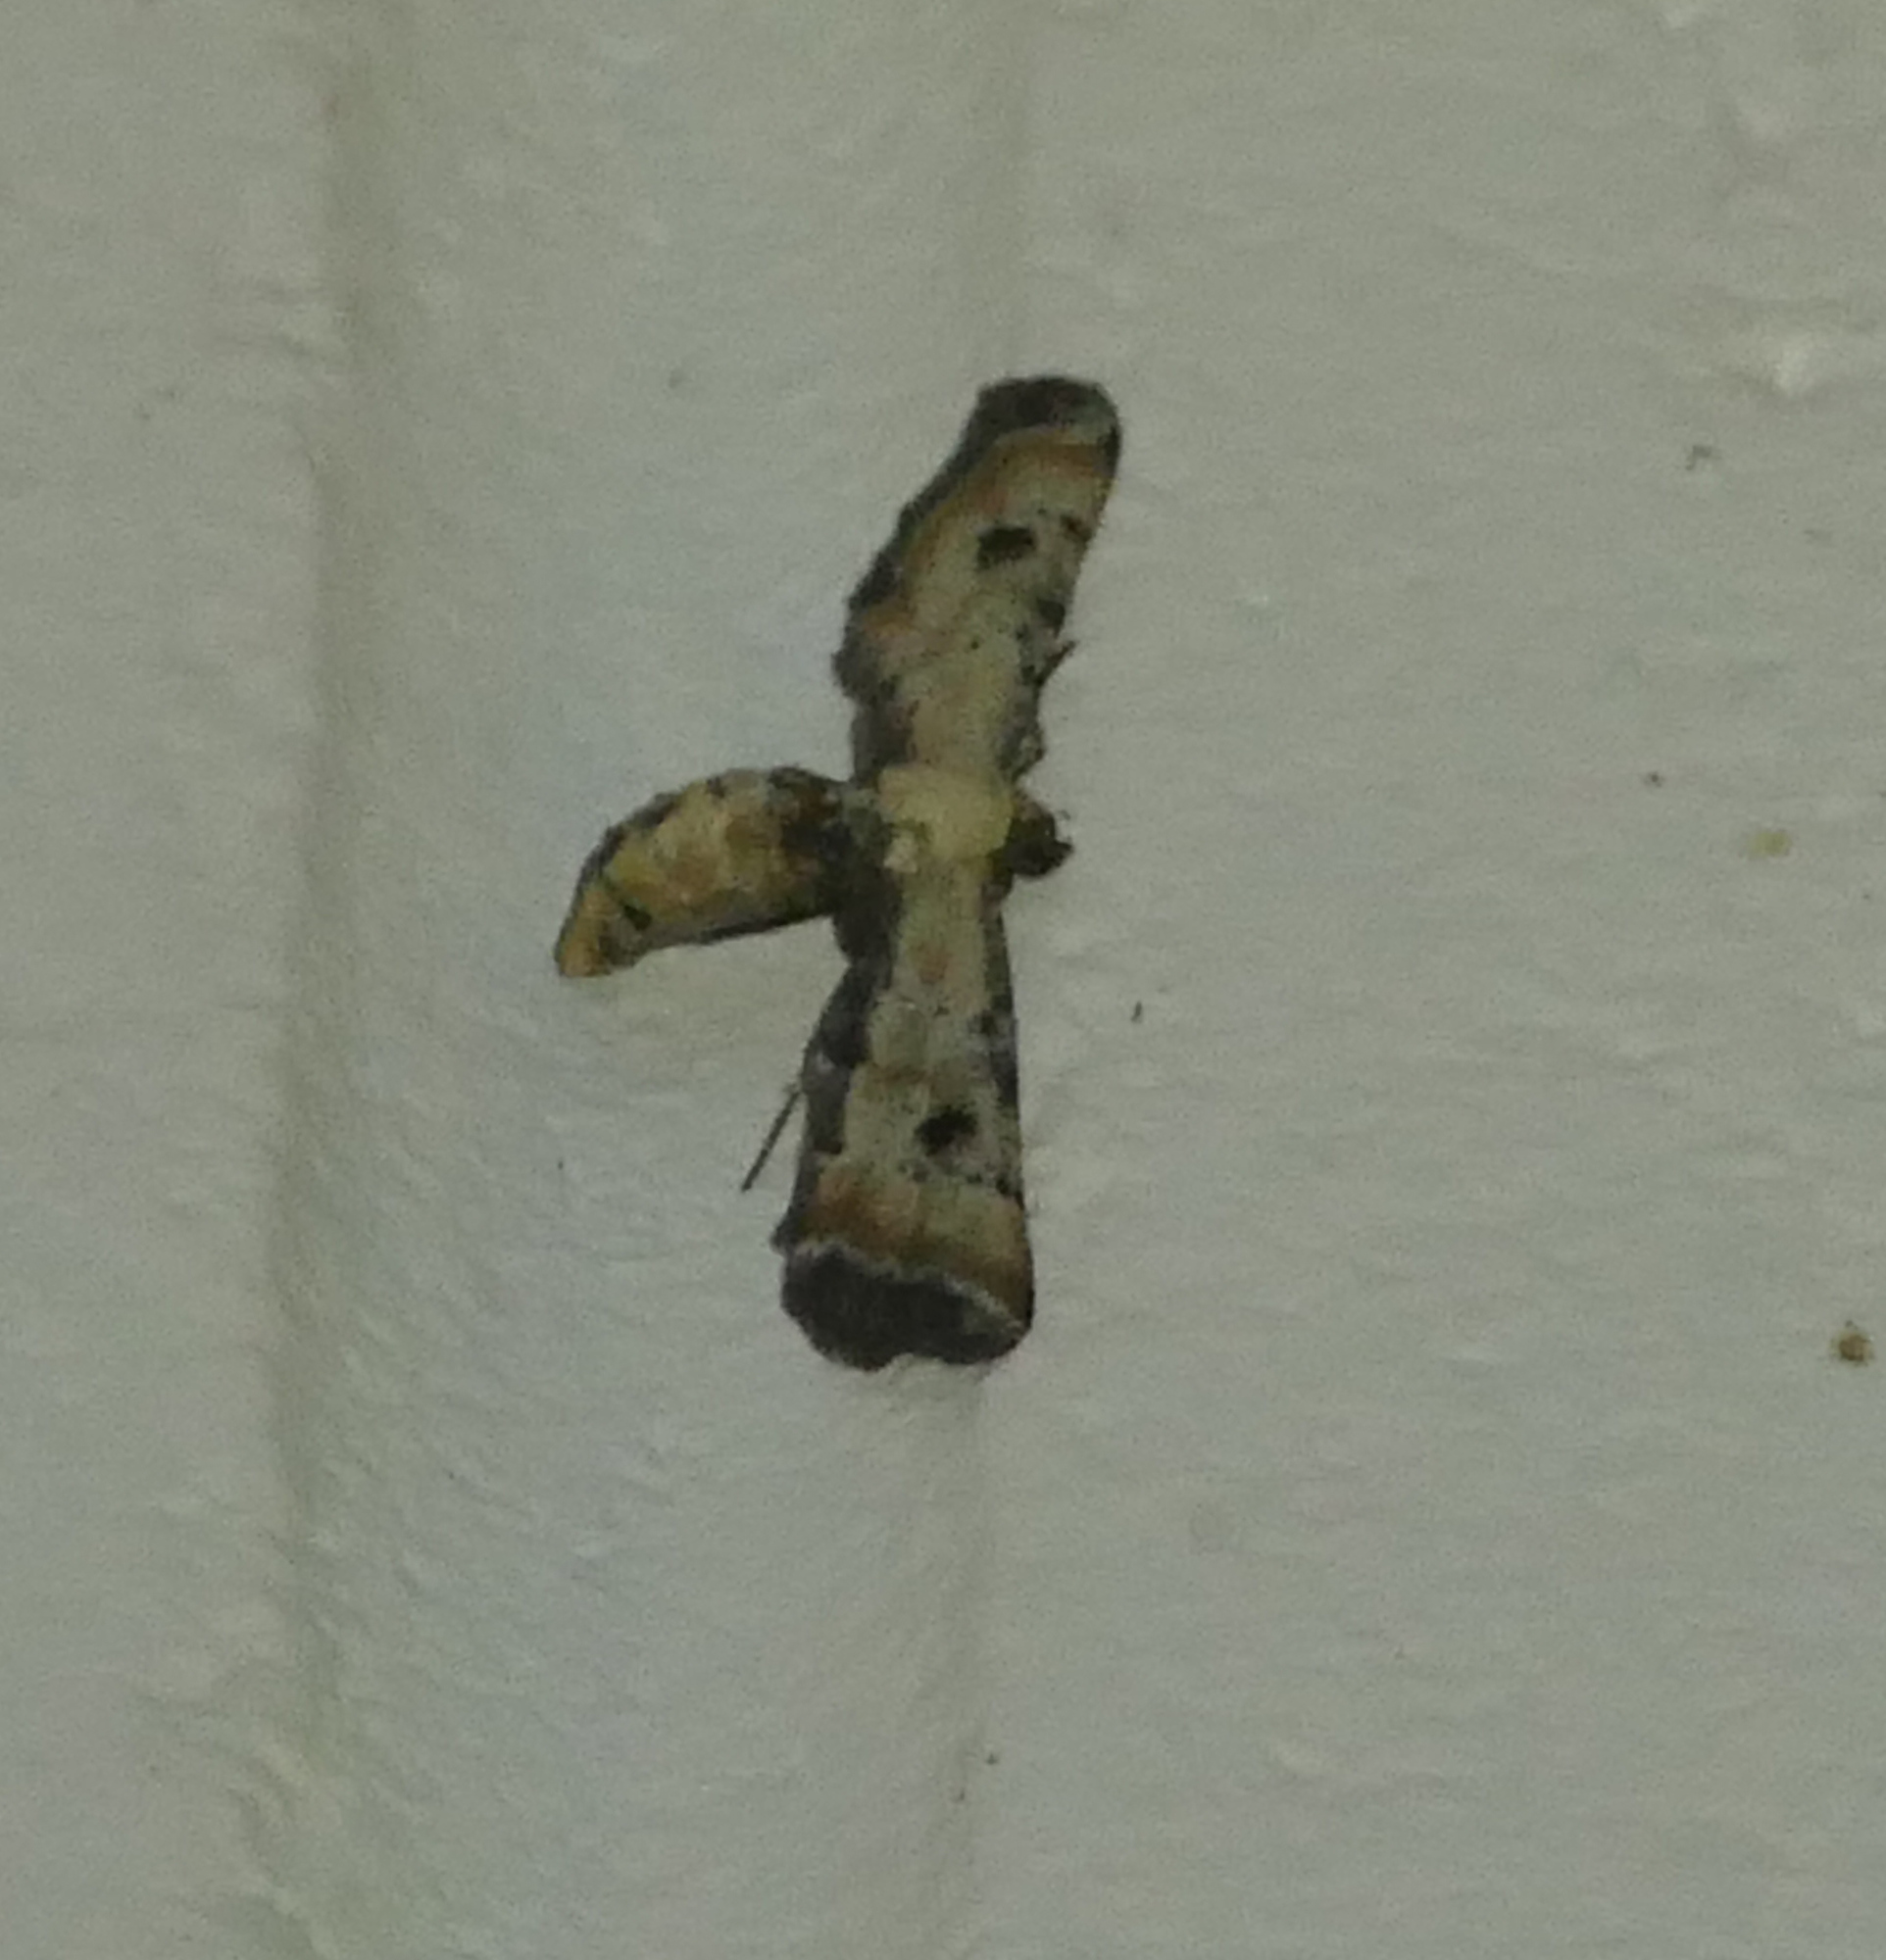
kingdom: Animalia
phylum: Arthropoda
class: Insecta
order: Lepidoptera
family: Geometridae
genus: Tornos
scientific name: Tornos scolopacinaria
